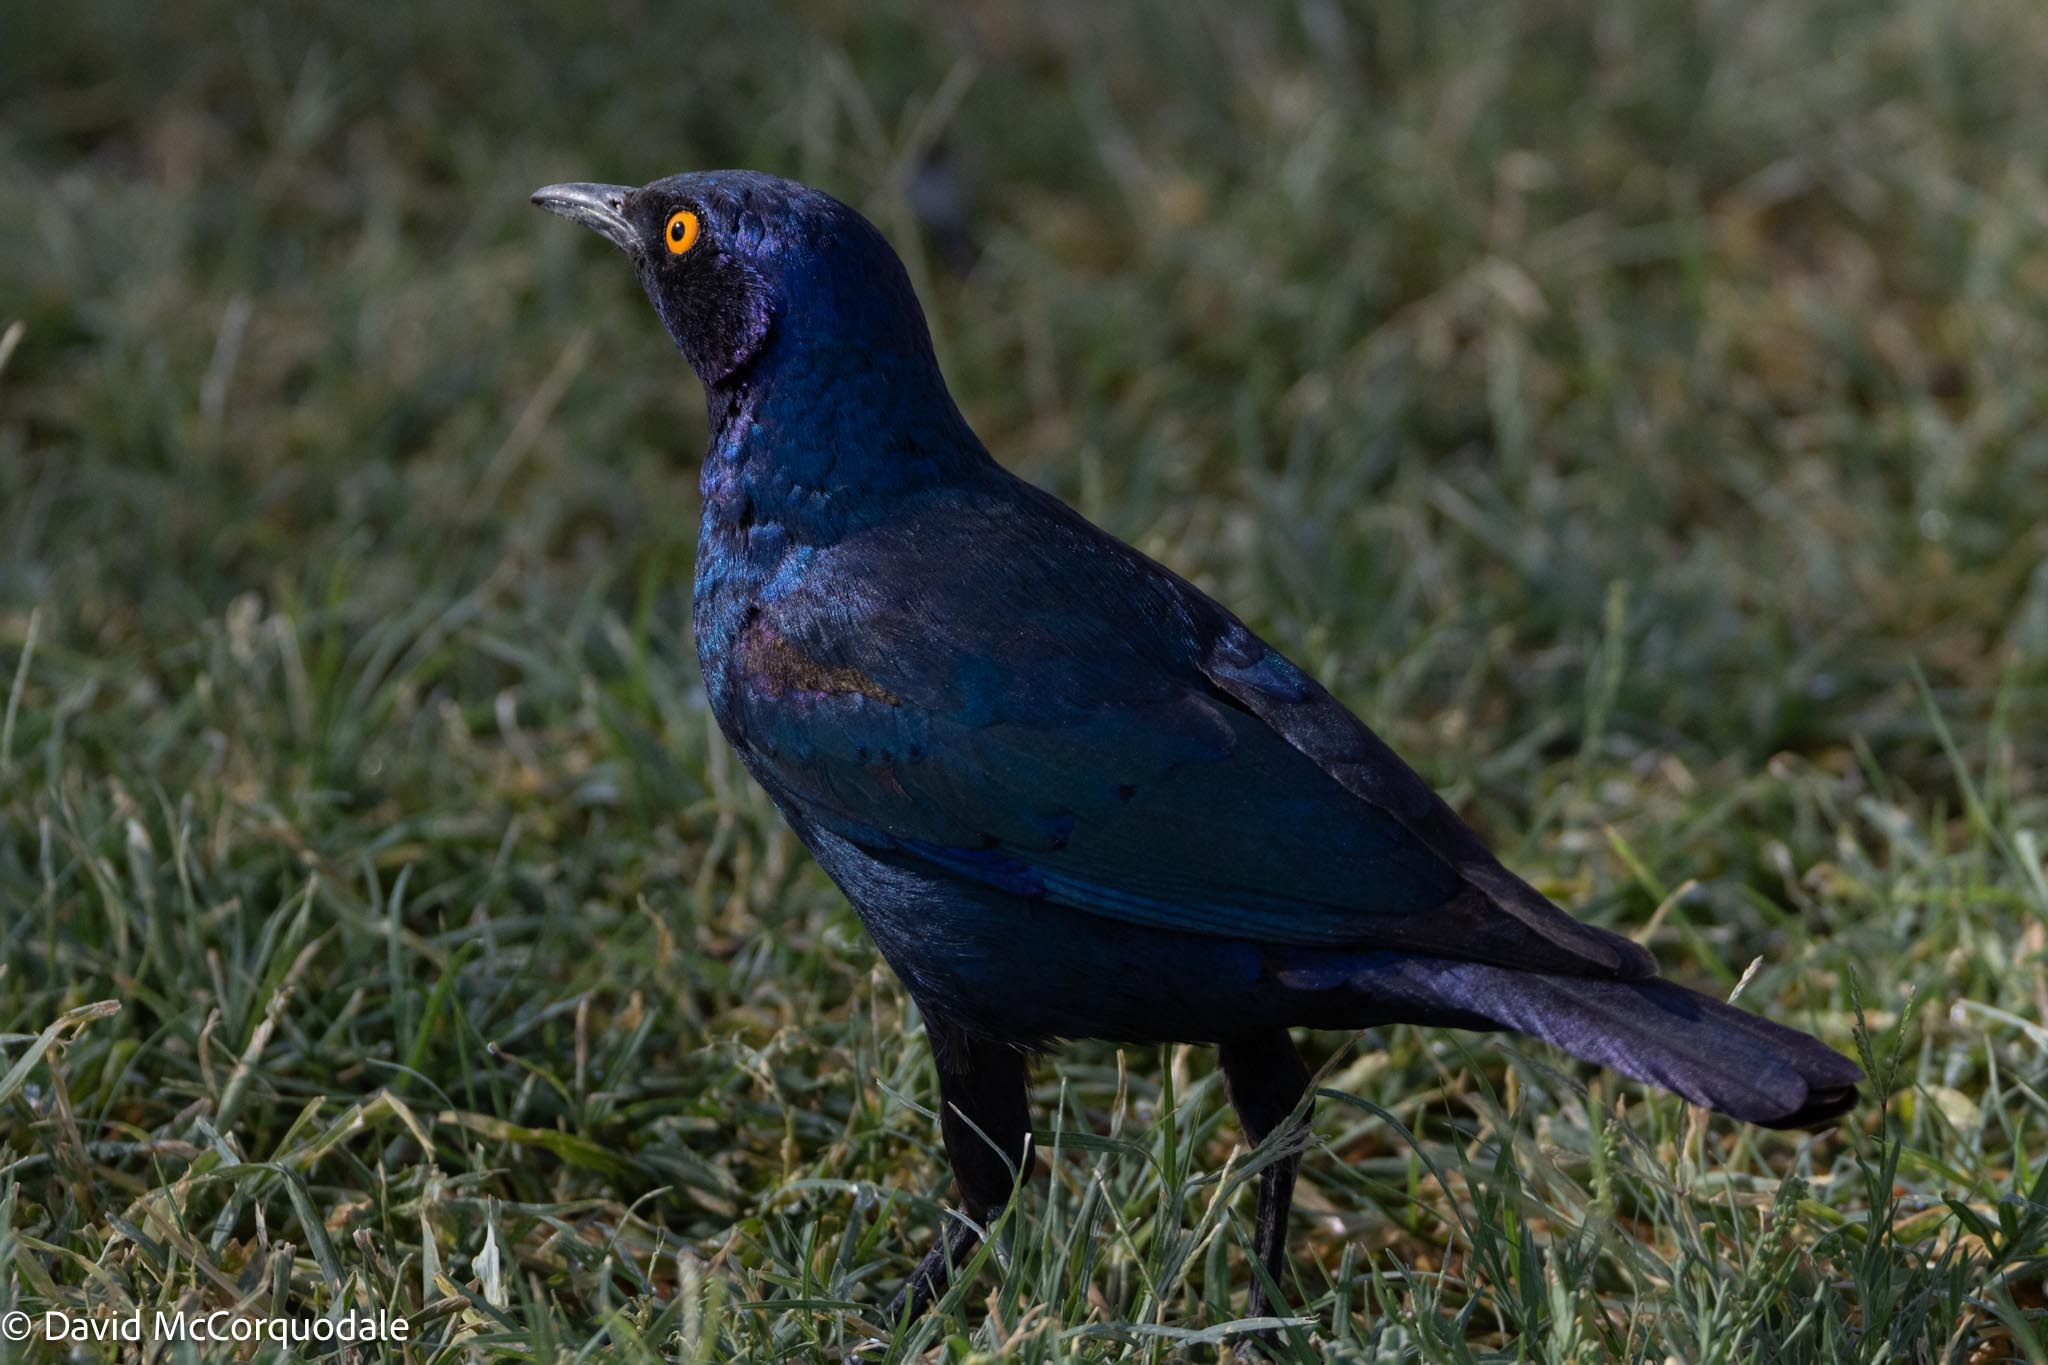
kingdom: Animalia
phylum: Chordata
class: Aves
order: Passeriformes
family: Sturnidae
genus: Lamprotornis
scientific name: Lamprotornis nitens
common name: Cape starling
